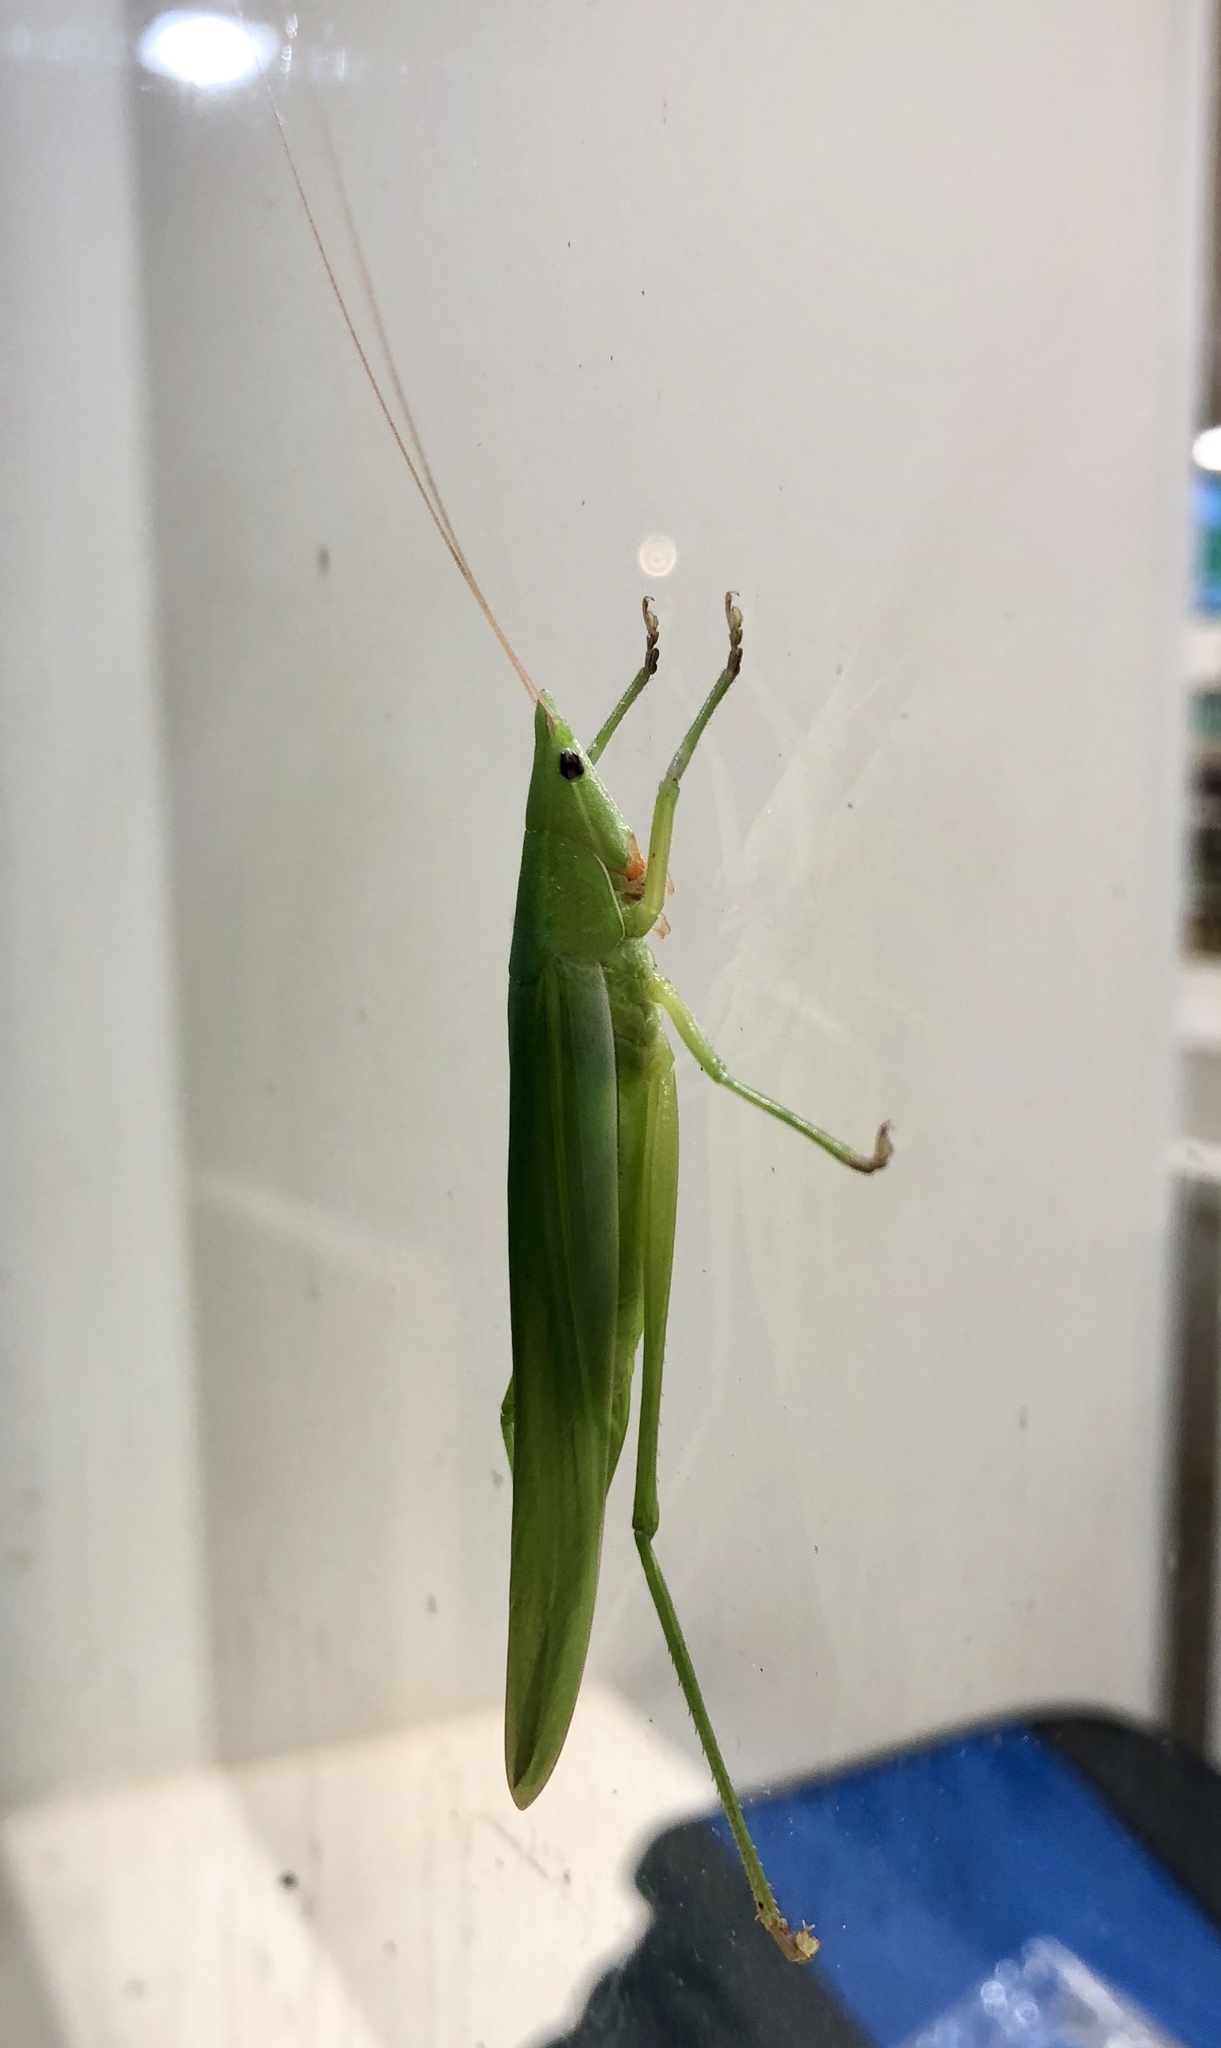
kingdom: Animalia
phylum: Arthropoda
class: Insecta
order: Orthoptera
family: Tettigoniidae
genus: Euconocephalus
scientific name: Euconocephalus nasutus
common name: Grasshopper
